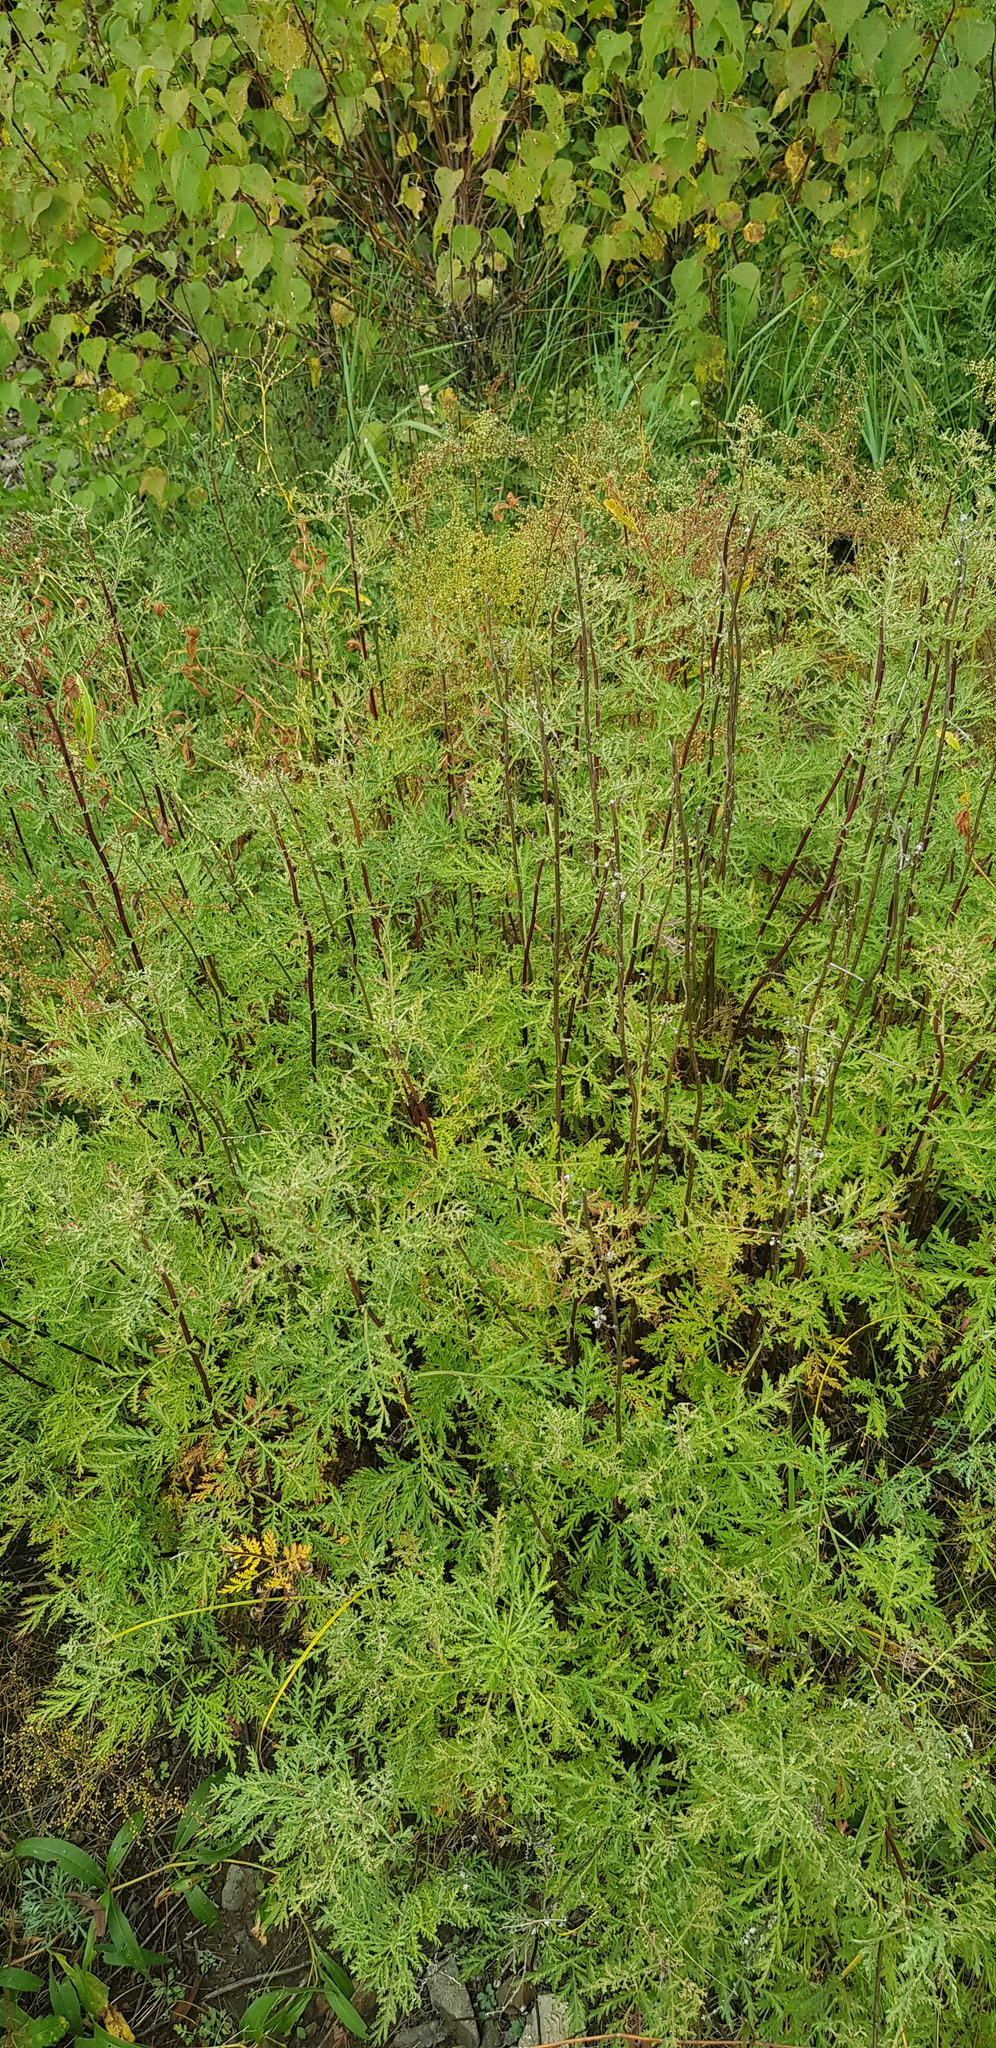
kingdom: Plantae
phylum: Tracheophyta
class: Magnoliopsida
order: Asterales
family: Asteraceae
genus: Artemisia
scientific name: Artemisia gmelinii
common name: Gmelin's wormwood
